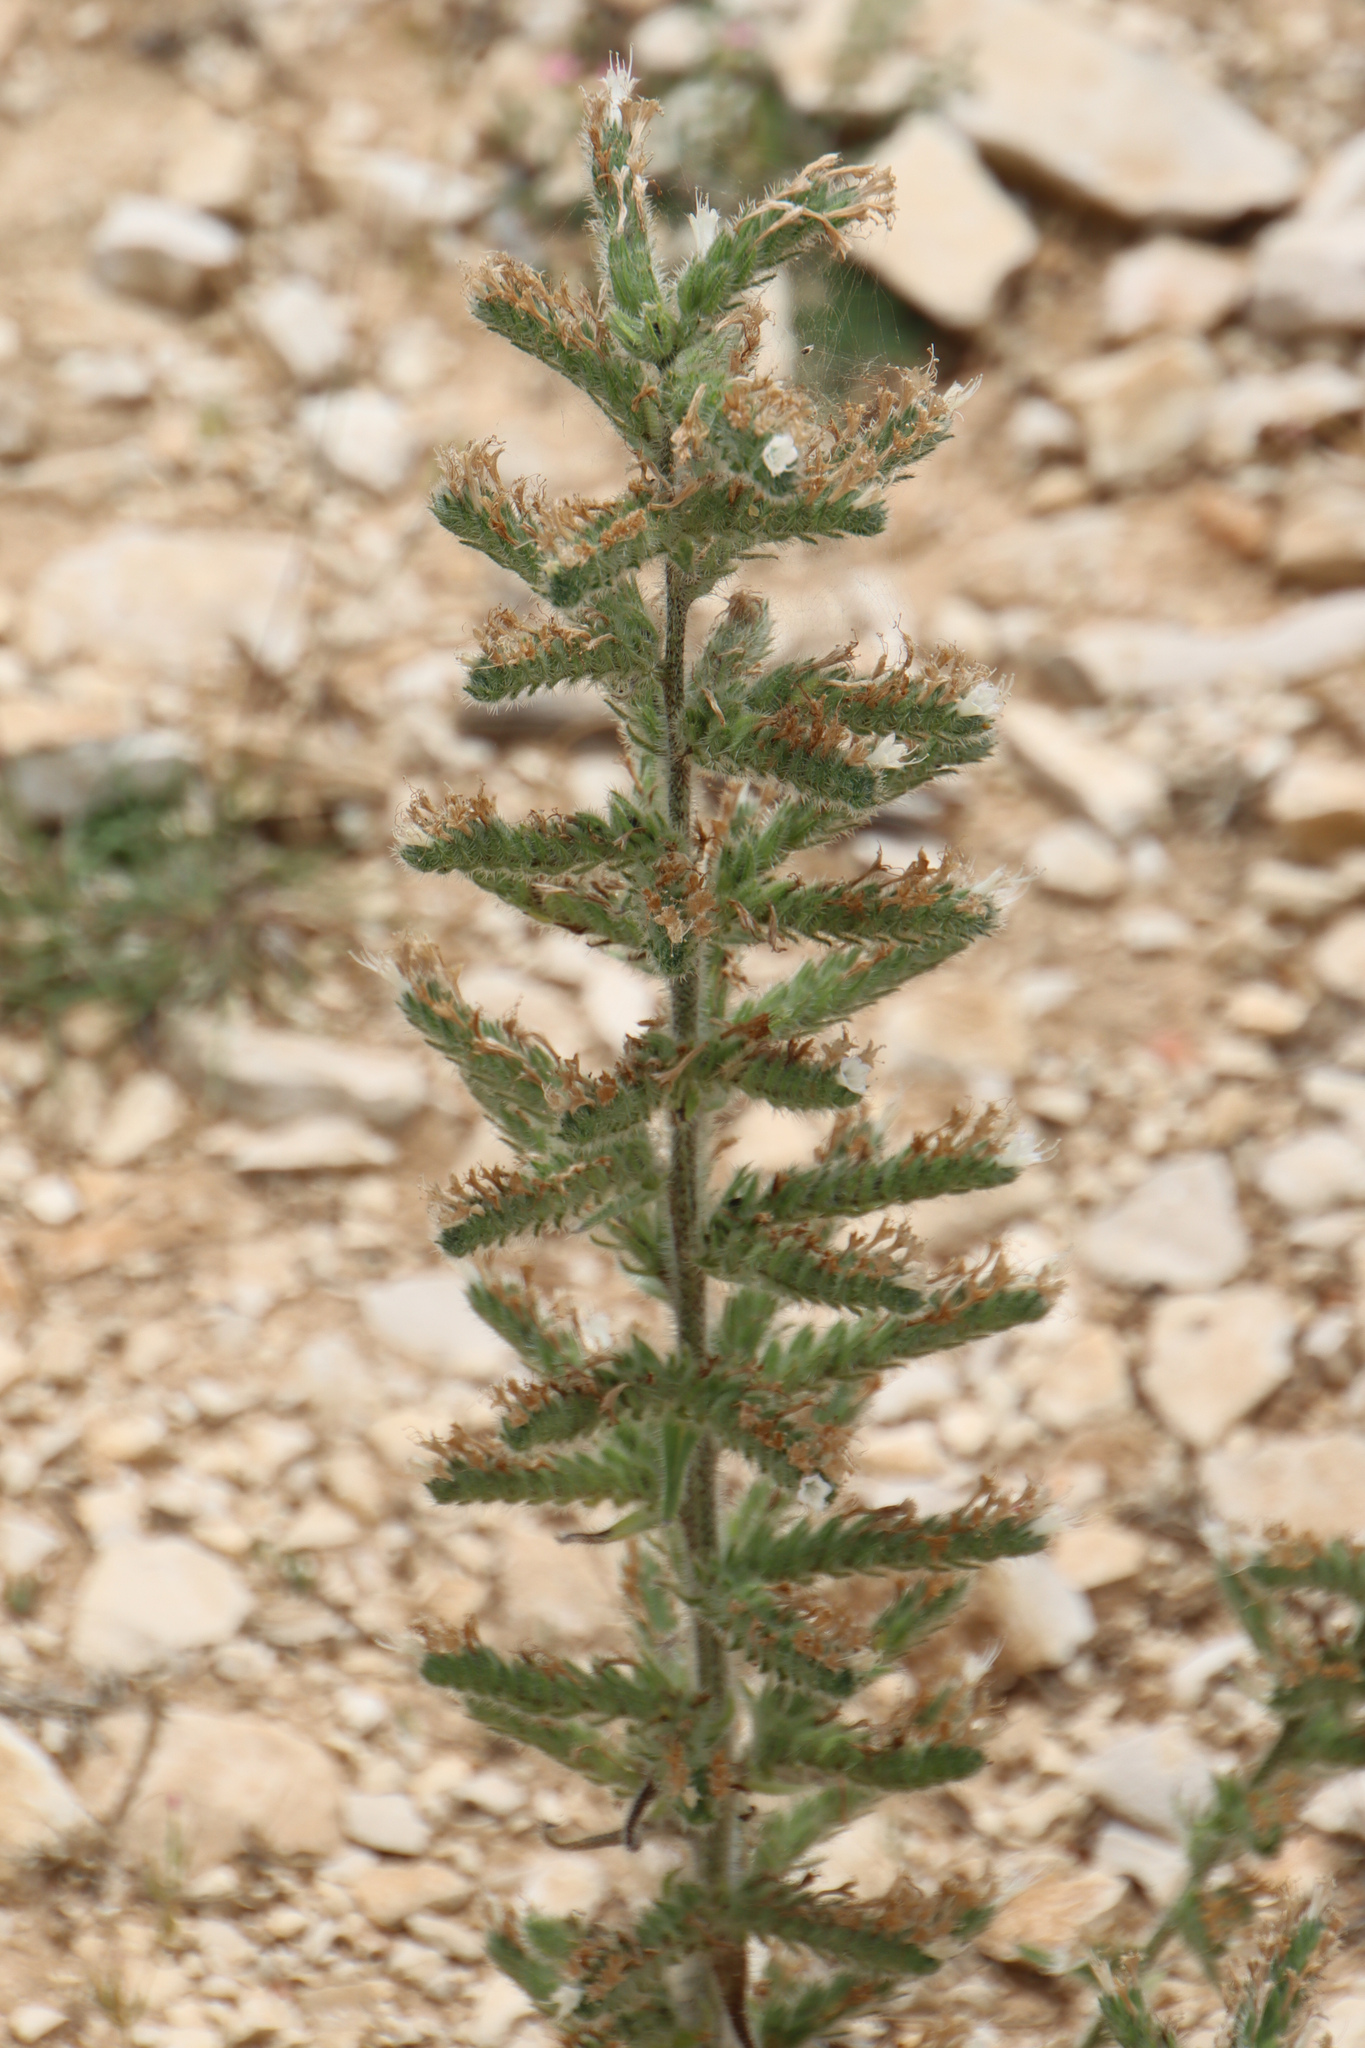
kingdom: Plantae
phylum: Tracheophyta
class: Magnoliopsida
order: Boraginales
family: Boraginaceae
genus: Echium
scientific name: Echium italicum
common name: Italian viper's bugloss
